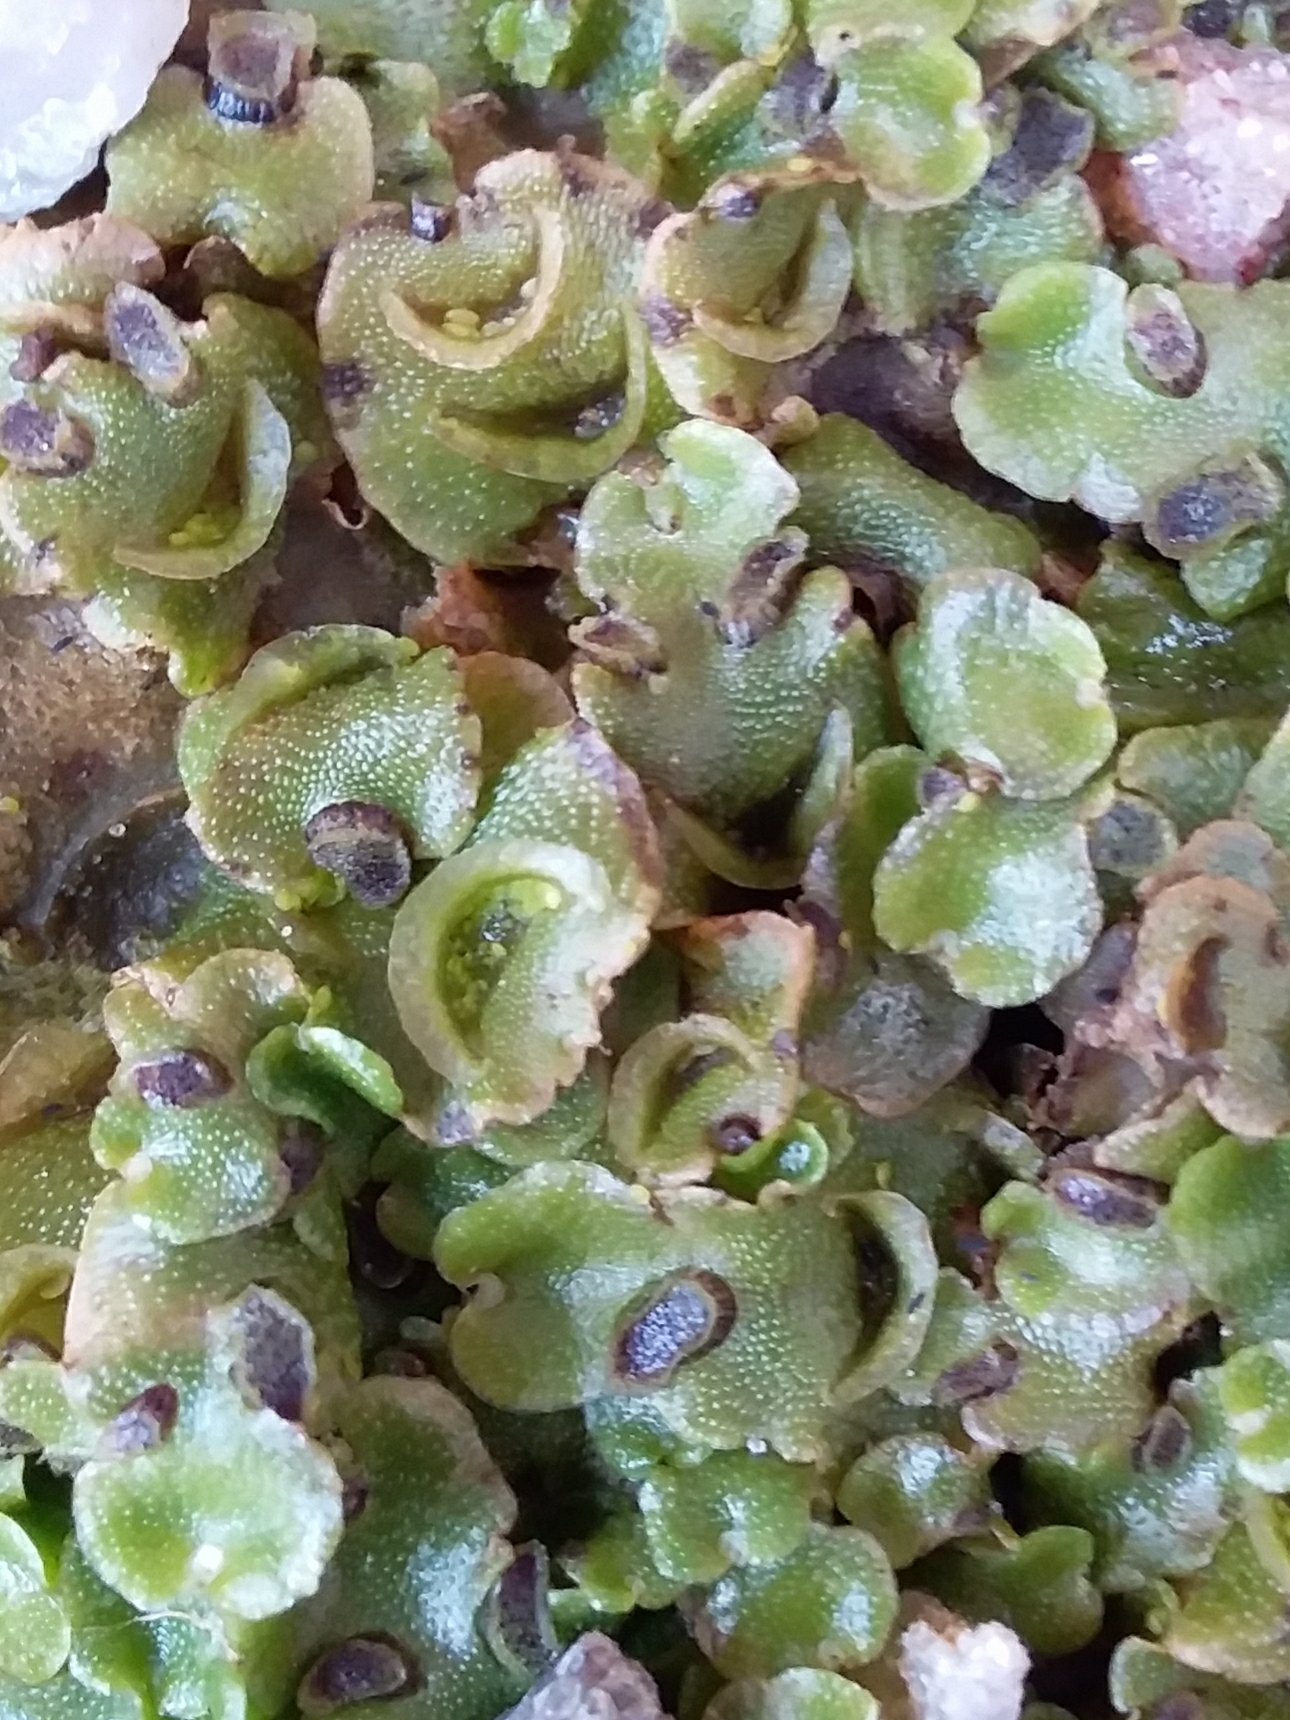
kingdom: Plantae
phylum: Marchantiophyta
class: Marchantiopsida
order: Lunulariales
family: Lunulariaceae
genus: Lunularia
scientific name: Lunularia cruciata
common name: Crescent-cup liverwort
